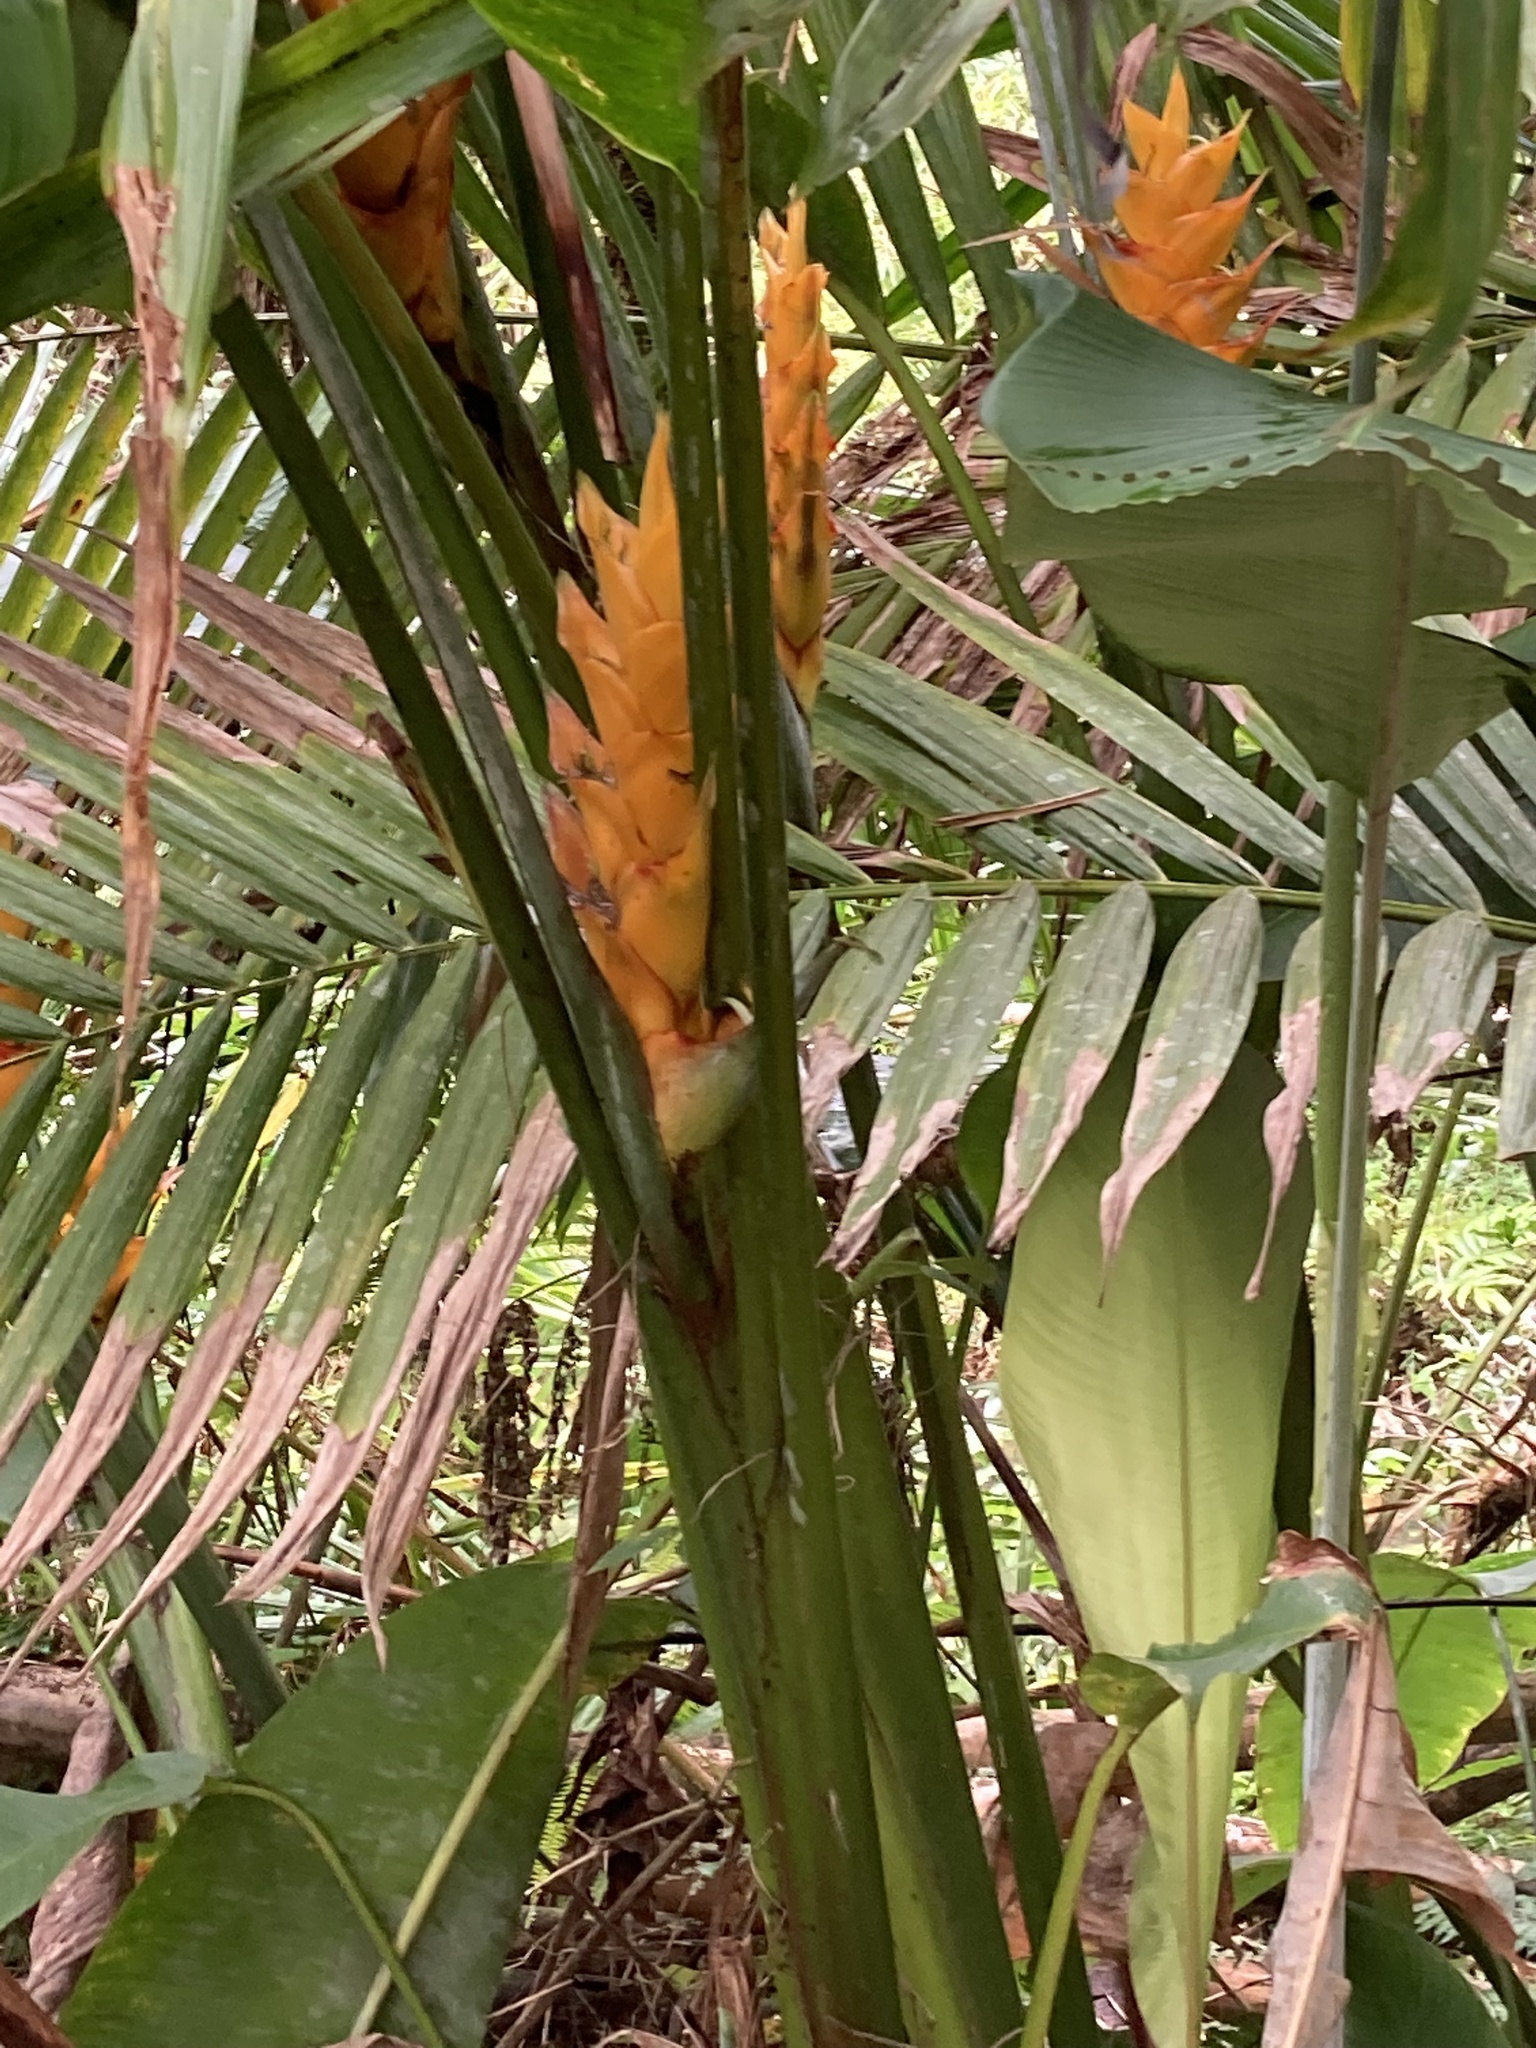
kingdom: Plantae
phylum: Tracheophyta
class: Liliopsida
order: Zingiberales
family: Heliconiaceae
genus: Heliconia
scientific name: Heliconia bihai
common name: Macaw flower
